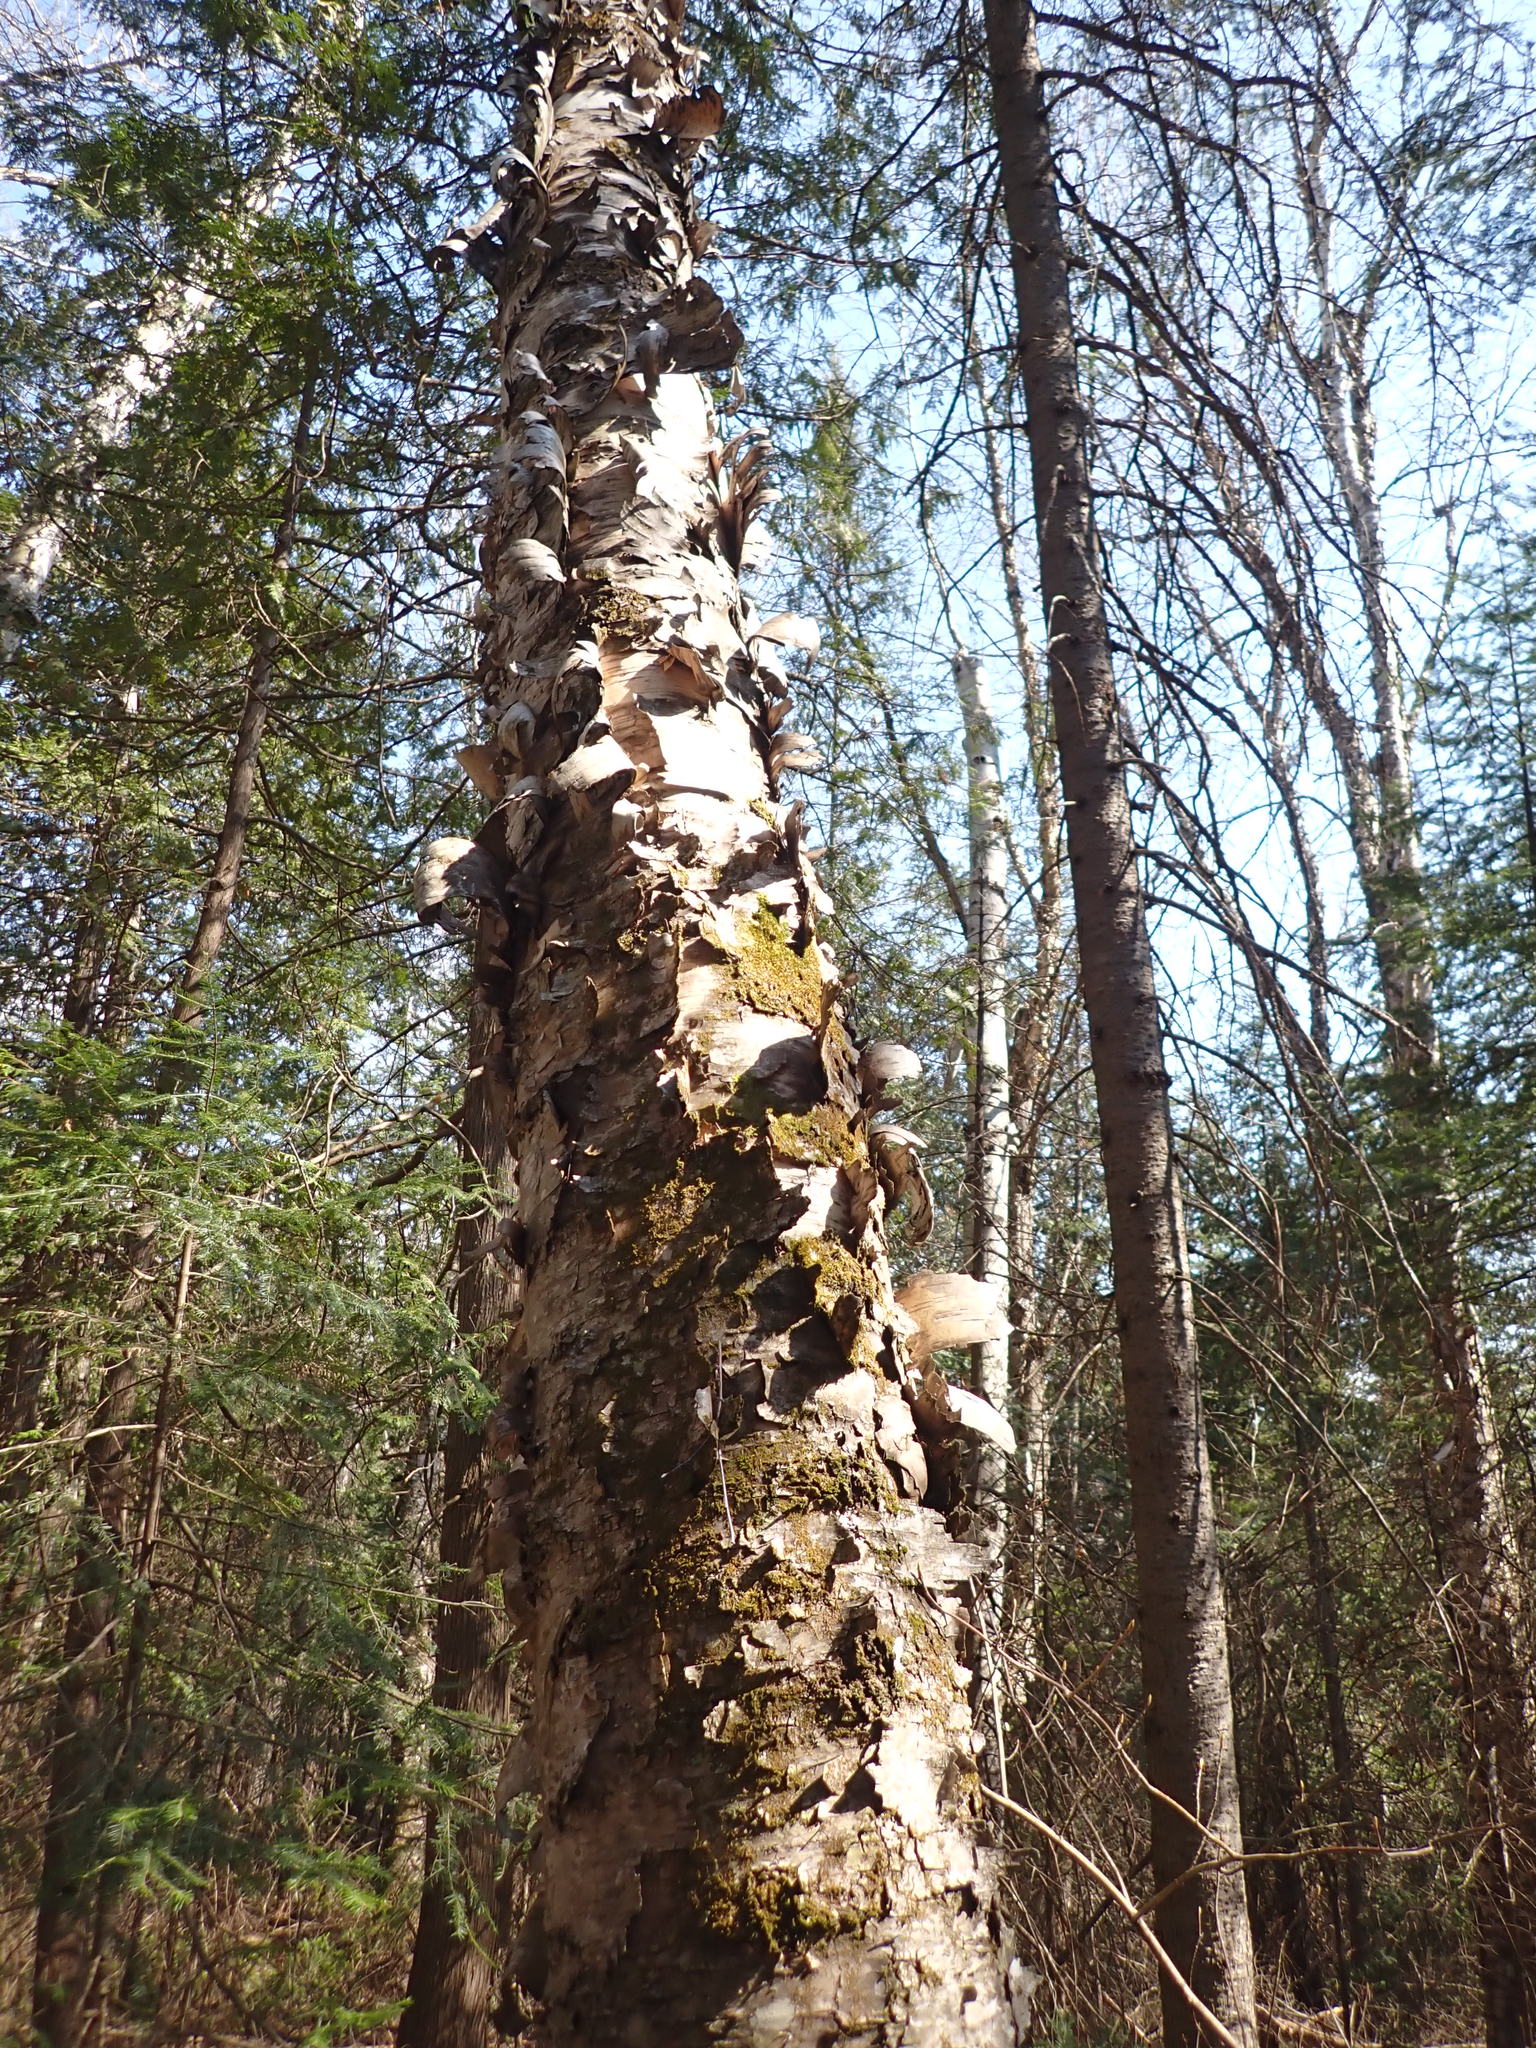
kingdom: Plantae
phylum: Tracheophyta
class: Magnoliopsida
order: Fagales
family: Betulaceae
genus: Betula
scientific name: Betula papyrifera
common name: Paper birch
